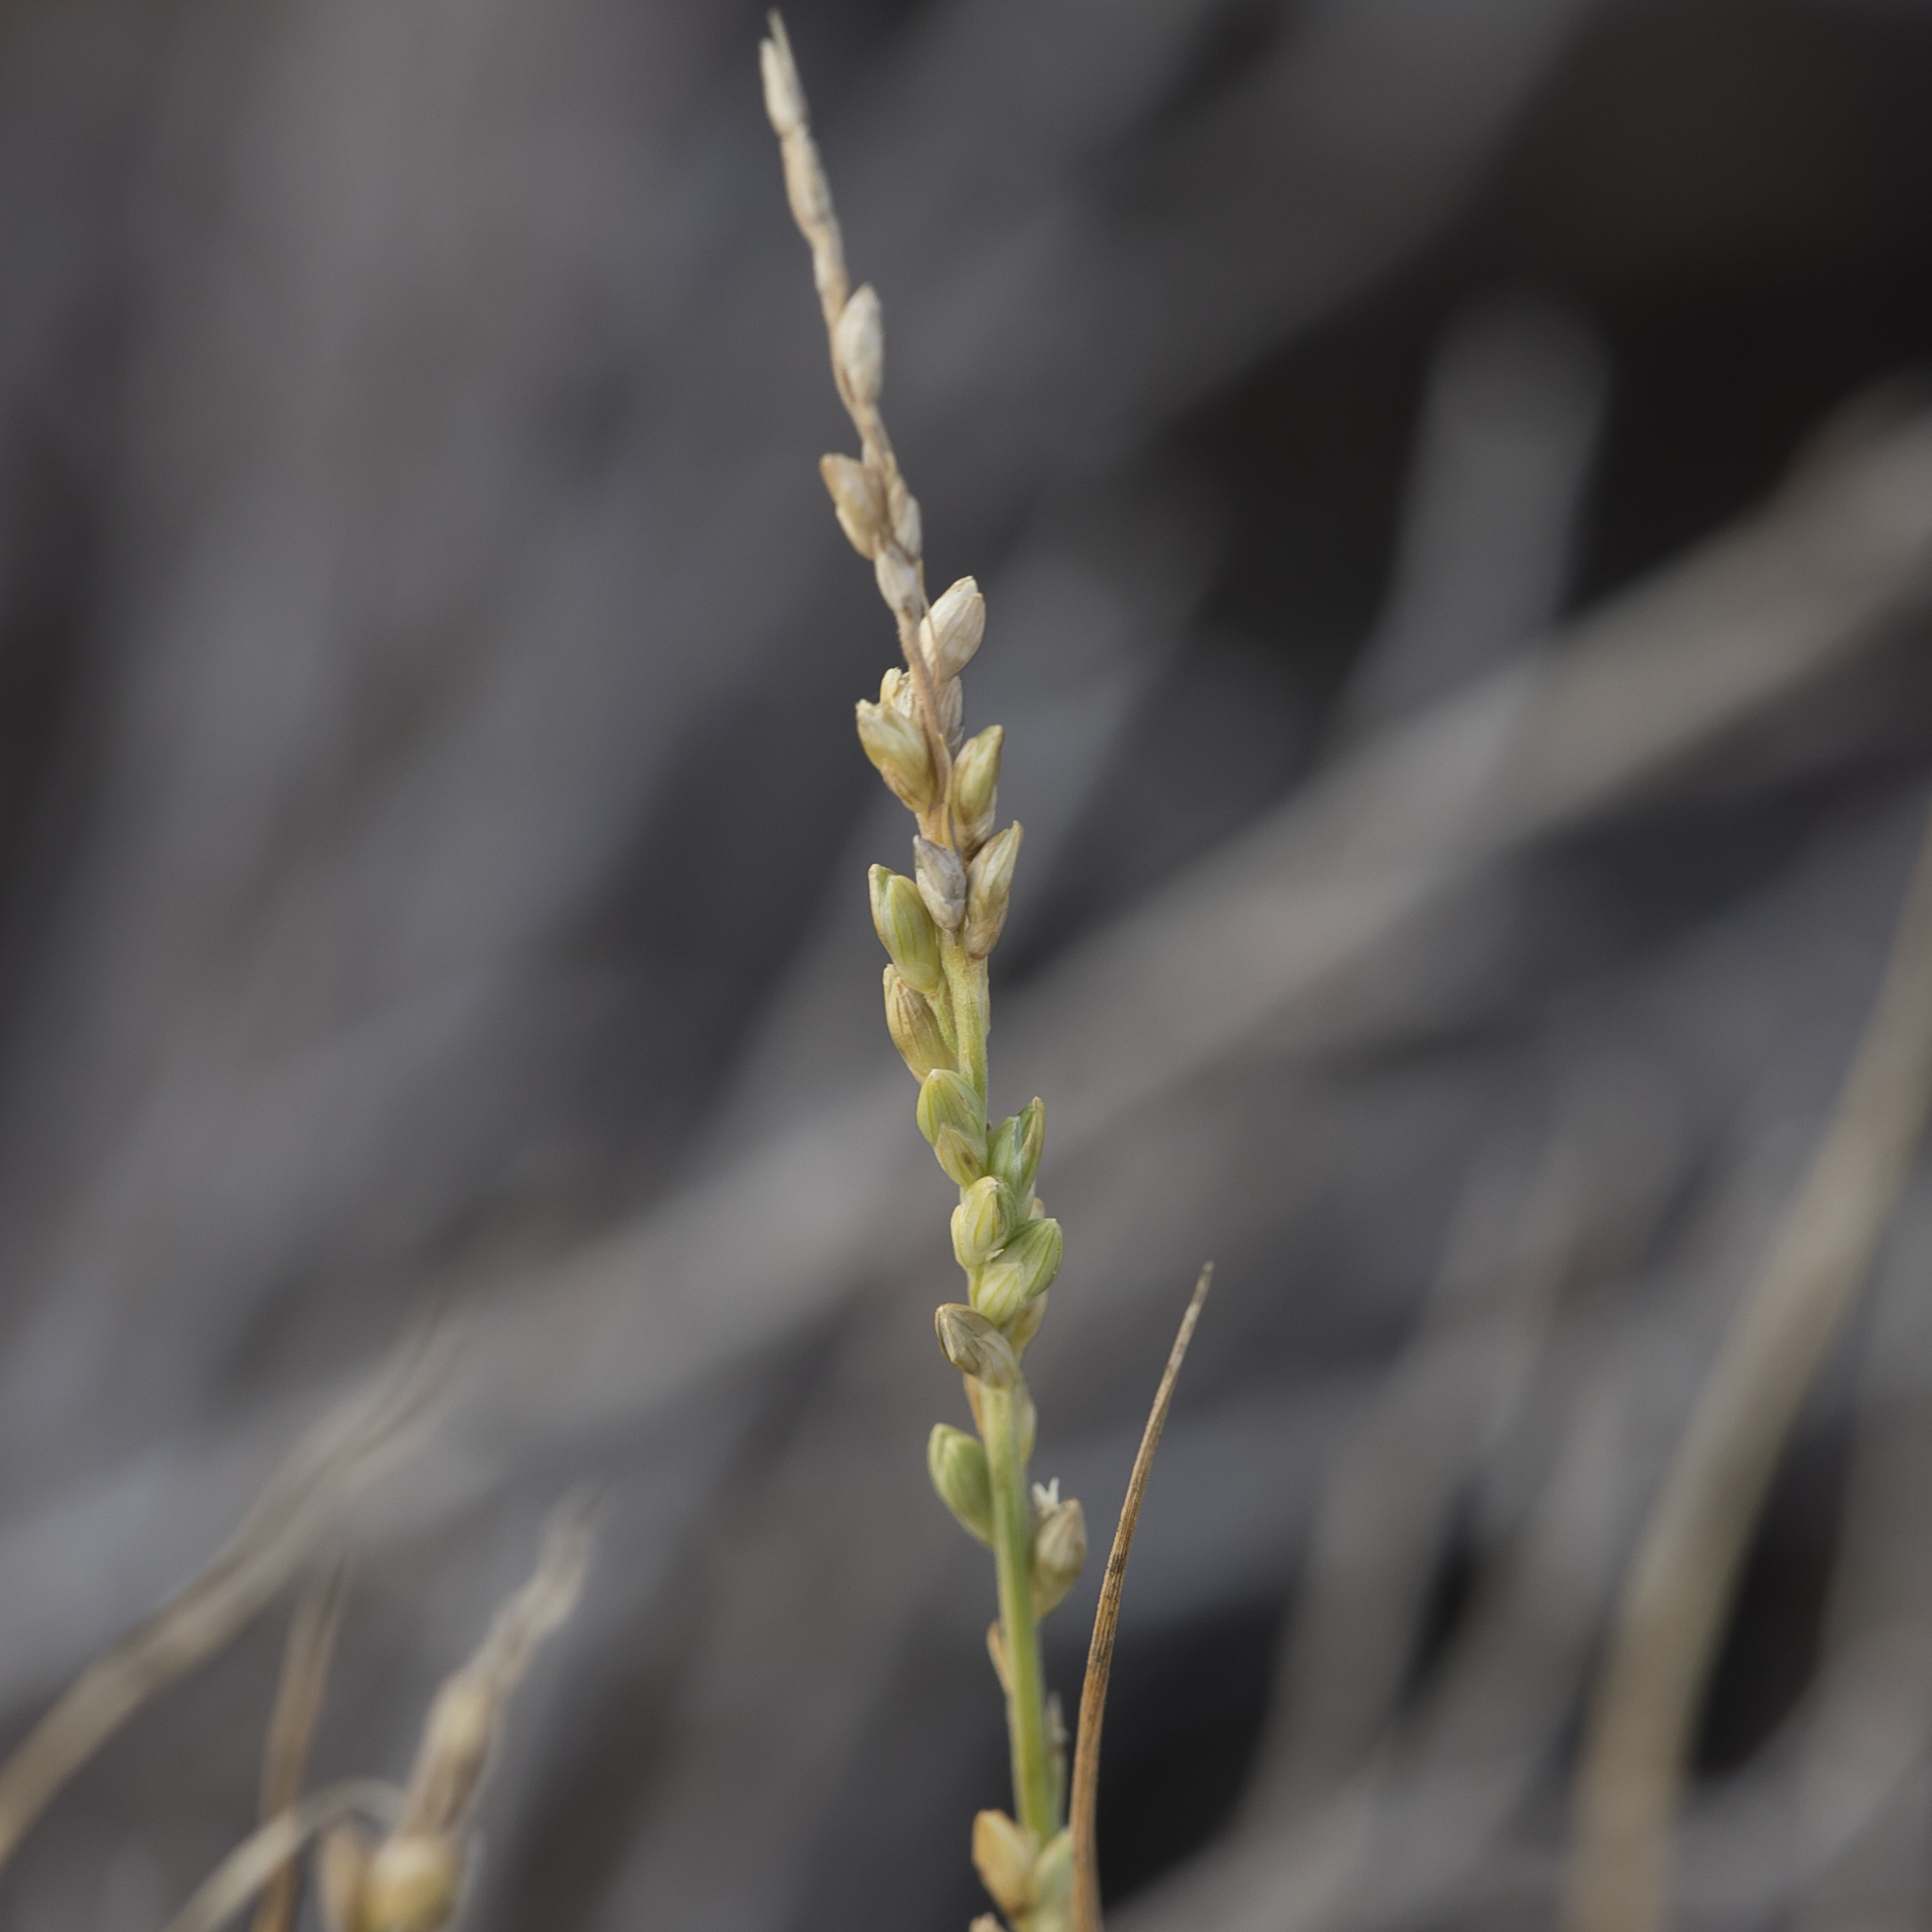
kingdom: Plantae
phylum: Tracheophyta
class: Liliopsida
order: Poales
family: Poaceae
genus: Setaria
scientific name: Setaria constricta
